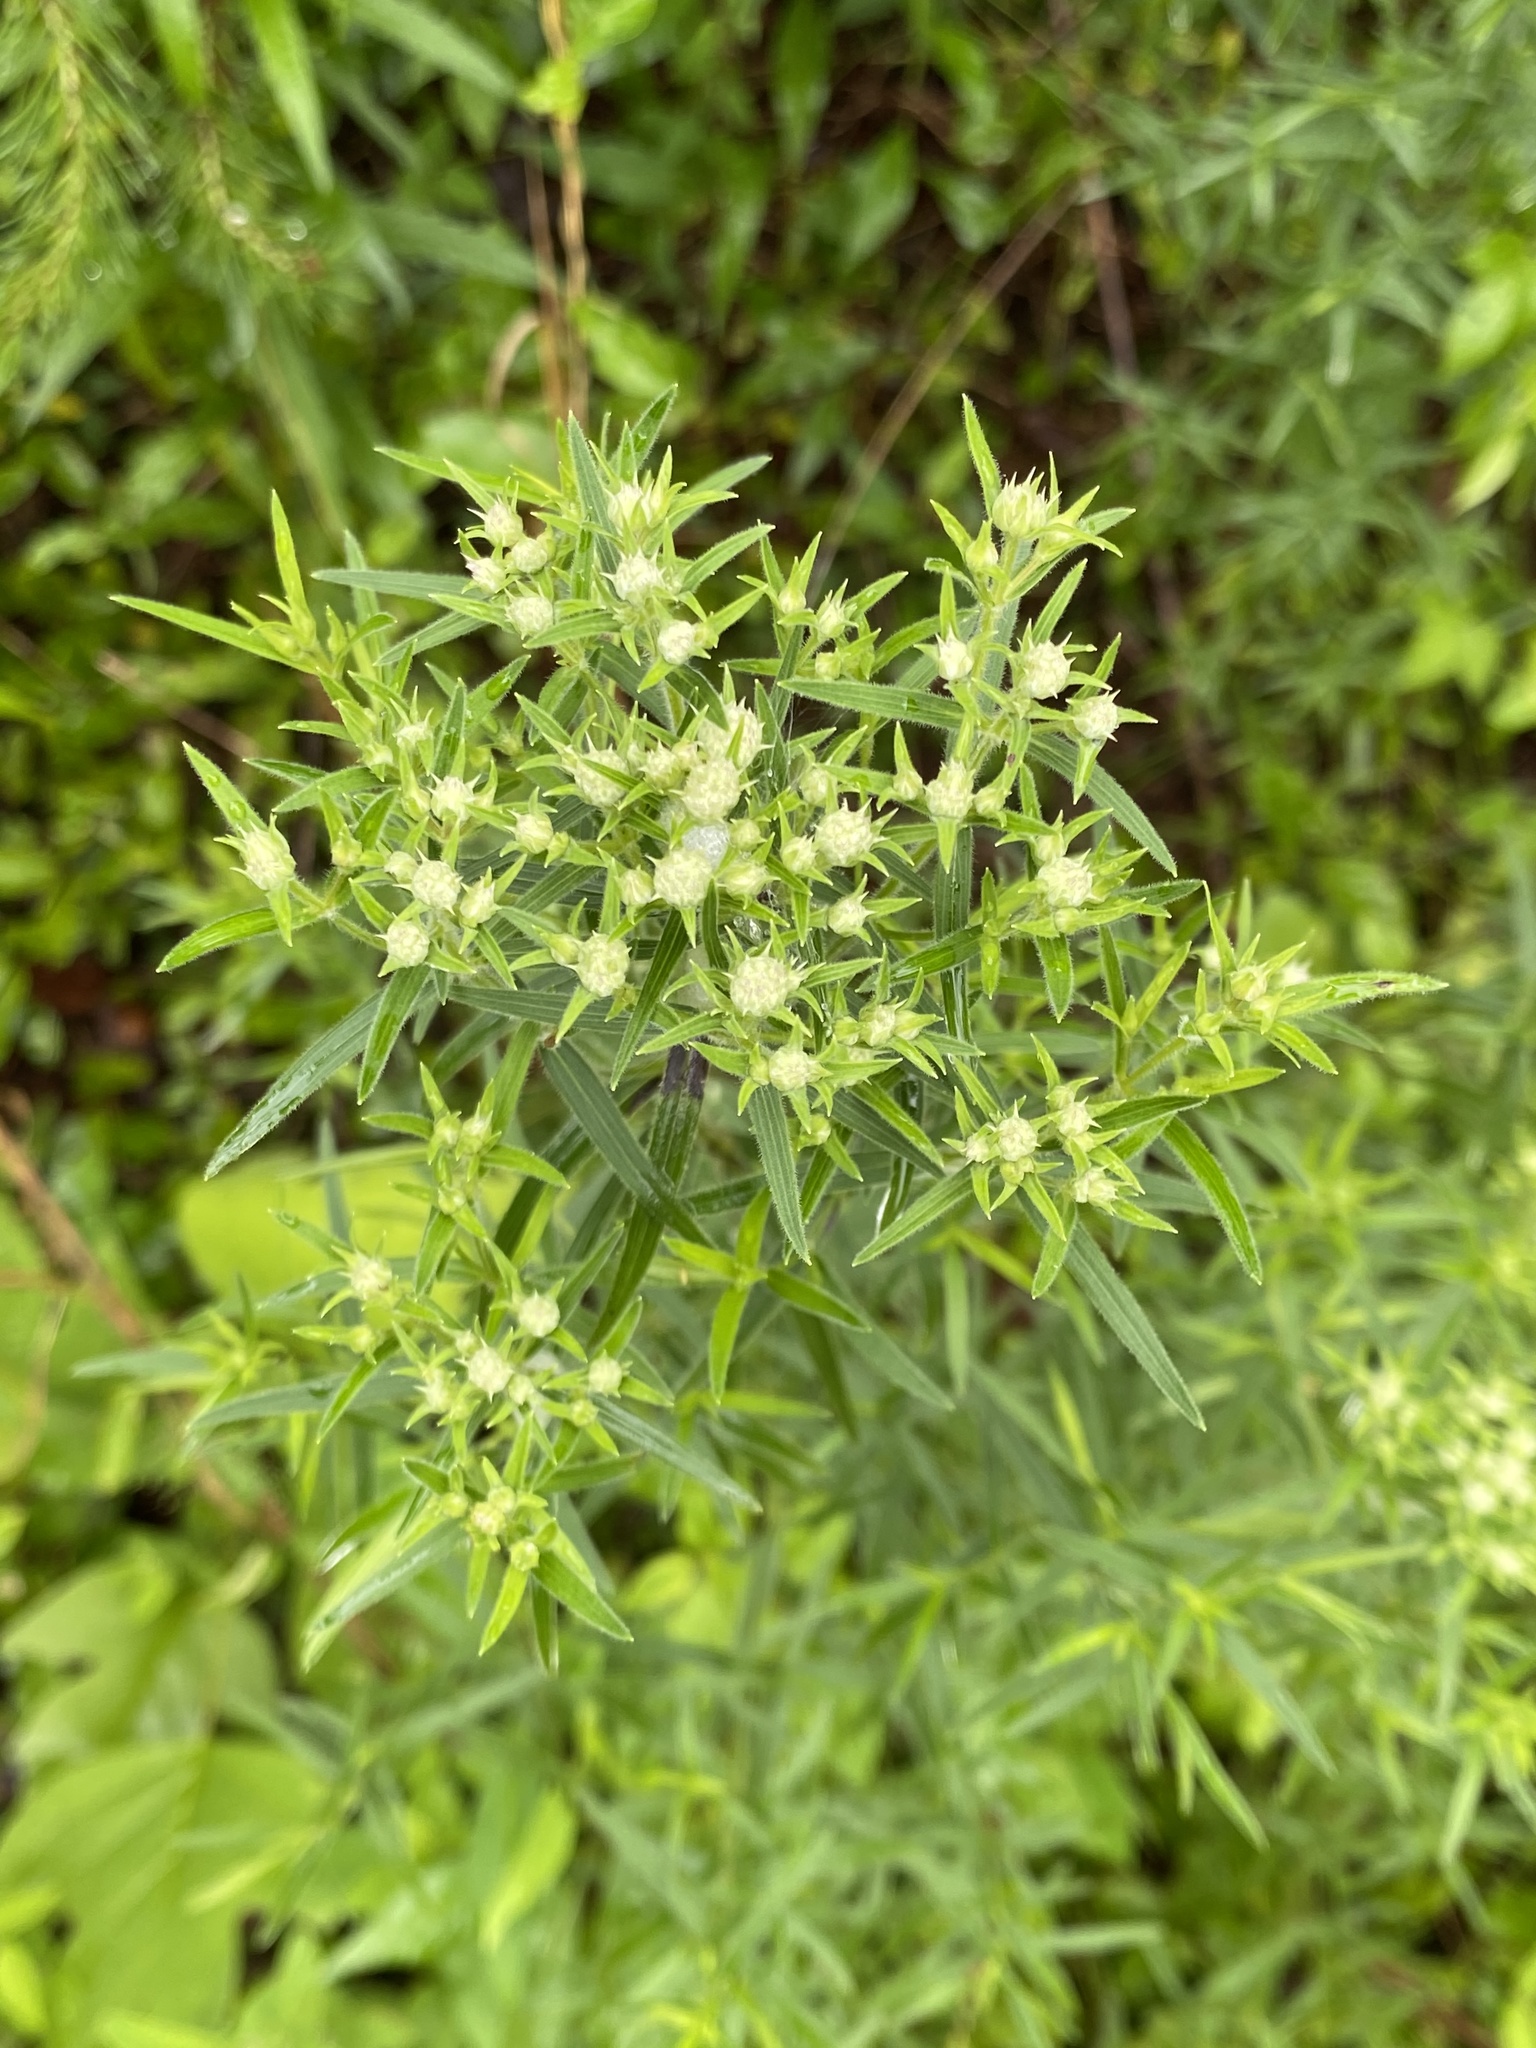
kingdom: Plantae
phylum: Tracheophyta
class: Magnoliopsida
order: Lamiales
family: Lamiaceae
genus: Pycnanthemum
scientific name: Pycnanthemum tenuifolium
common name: Narrow-leaf mountain-mint
